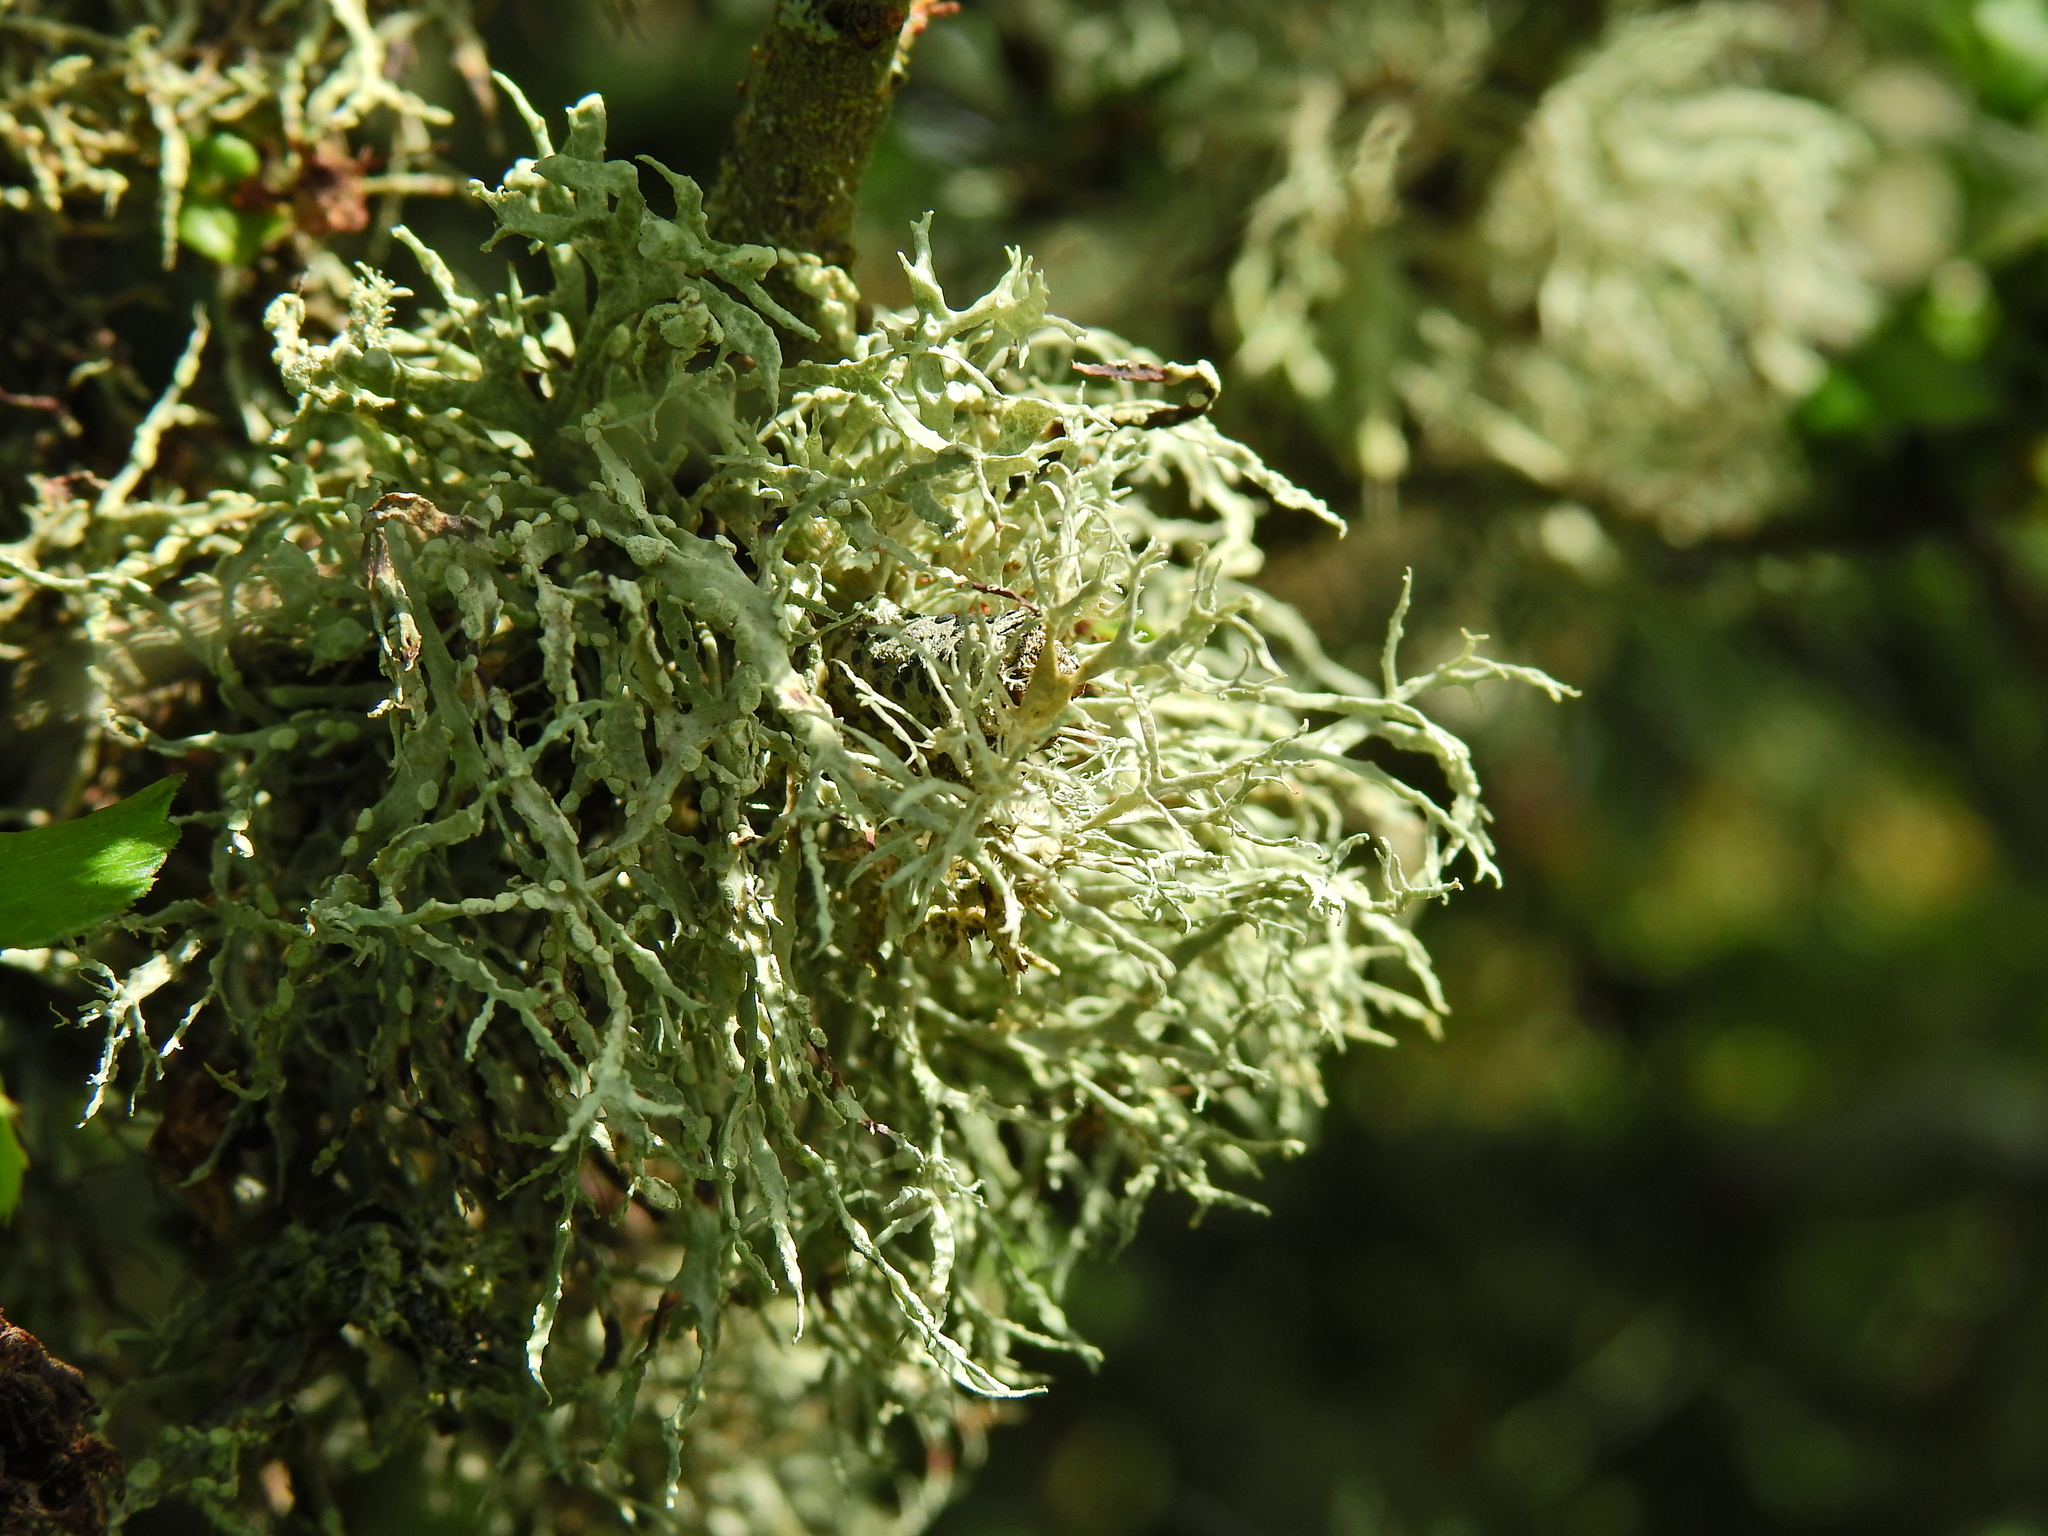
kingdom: Fungi
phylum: Ascomycota
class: Lecanoromycetes
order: Lecanorales
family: Ramalinaceae
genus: Ramalina
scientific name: Ramalina farinacea
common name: Farinose cartilage lichen
